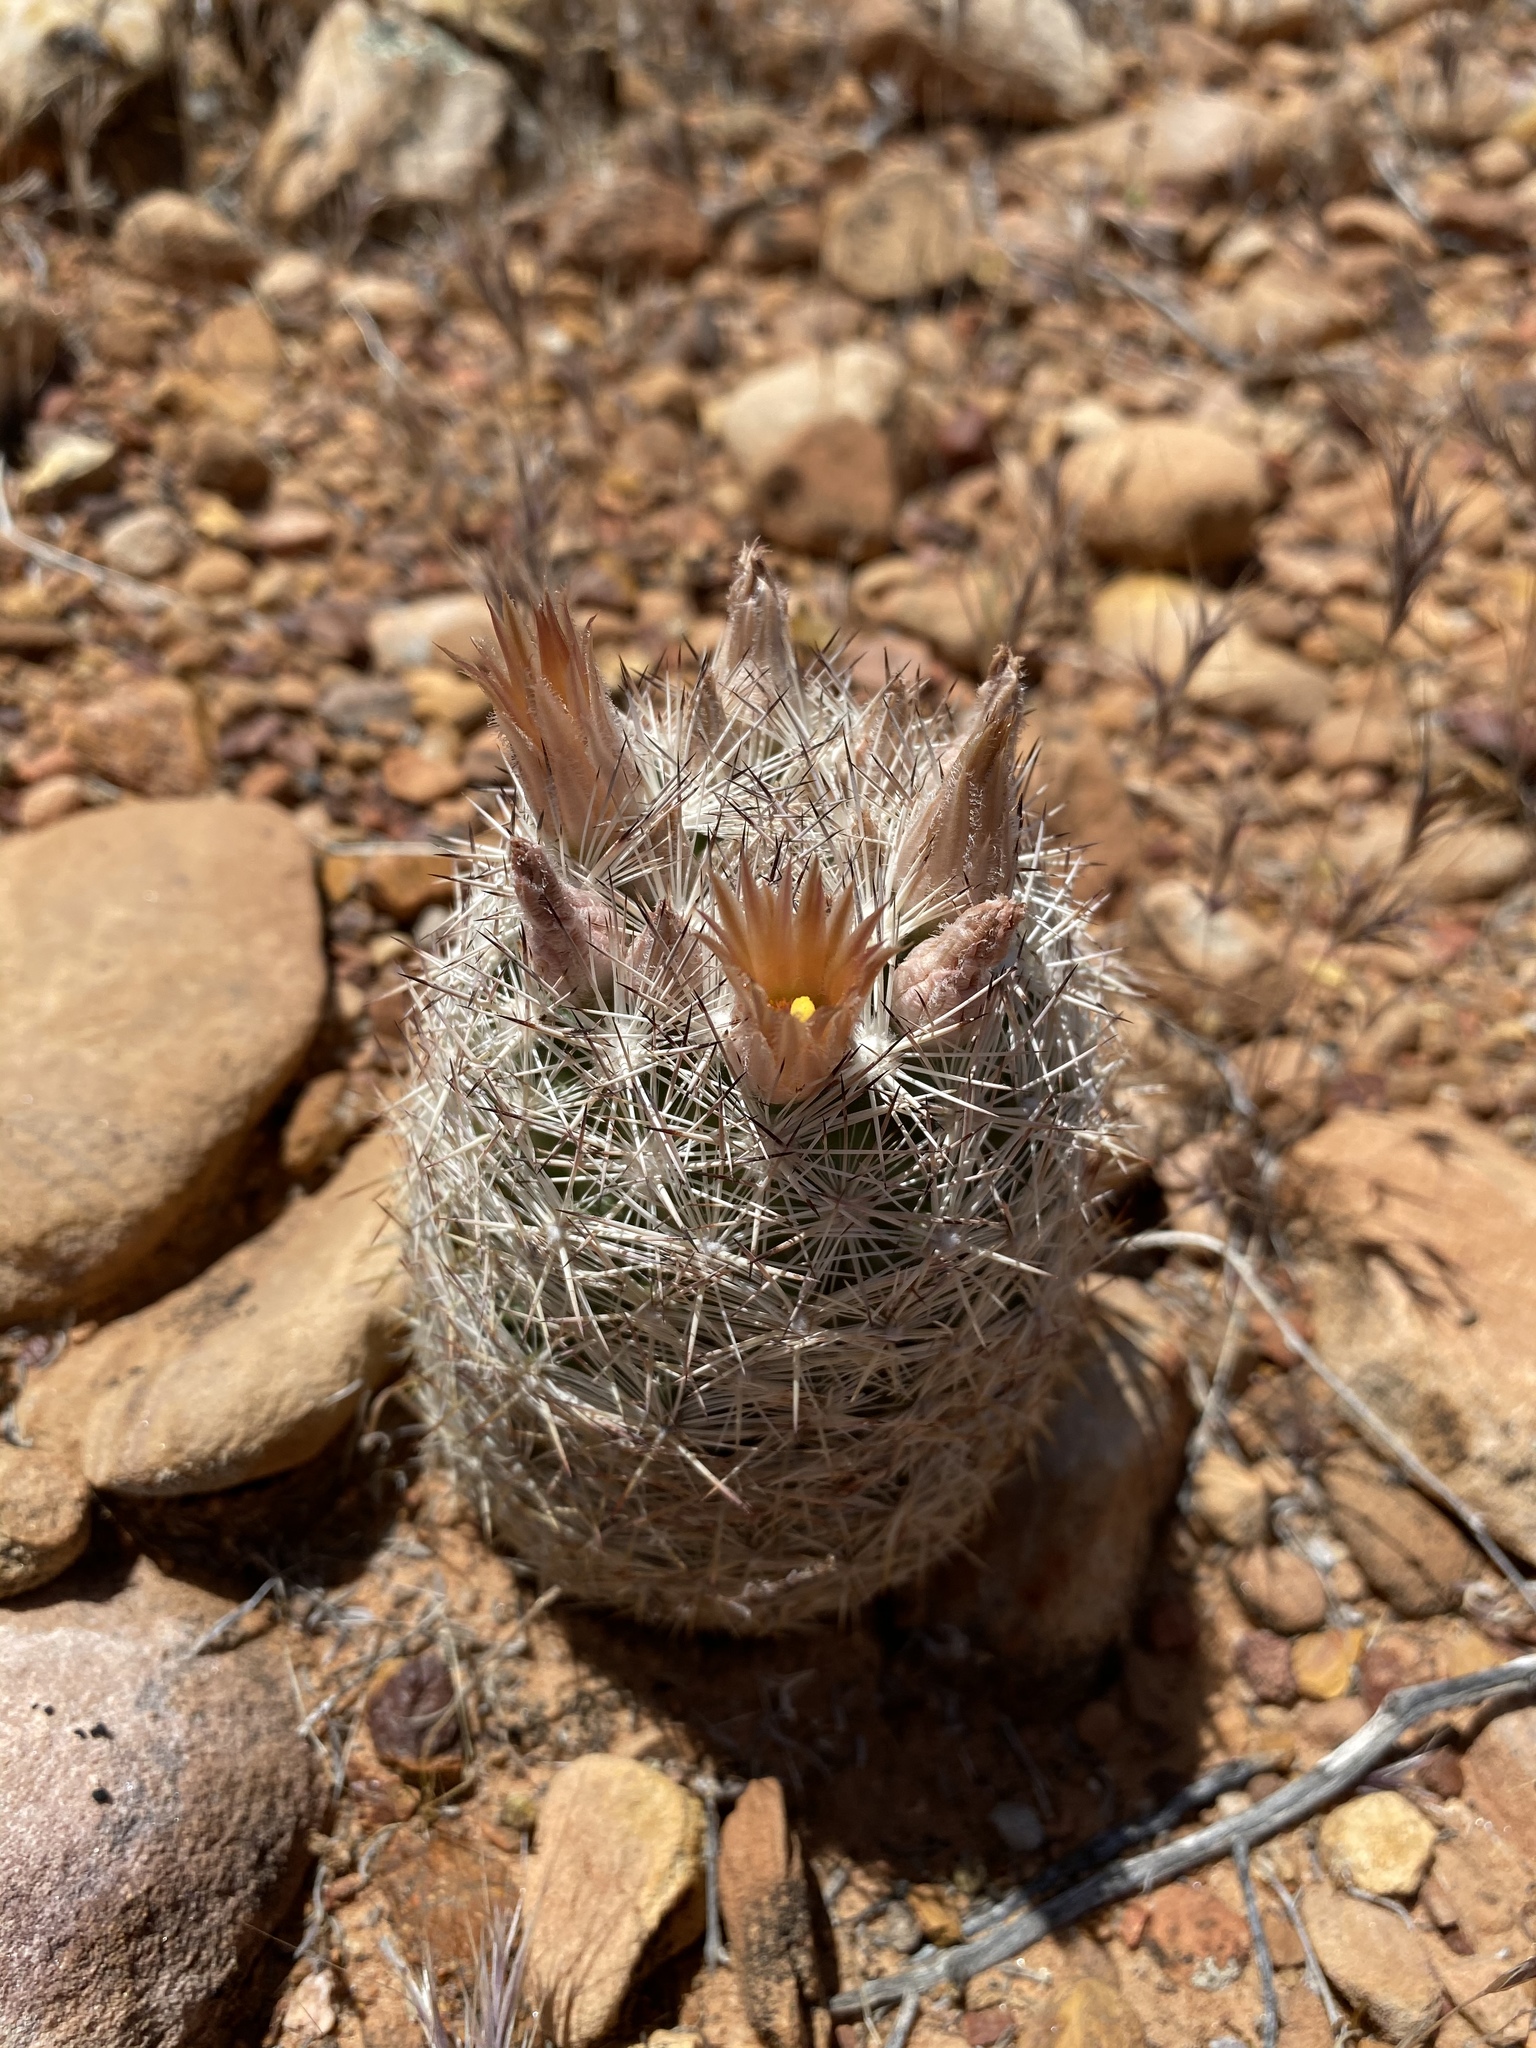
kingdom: Plantae
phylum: Tracheophyta
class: Magnoliopsida
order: Caryophyllales
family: Cactaceae
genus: Pelecyphora
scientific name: Pelecyphora dasyacantha
